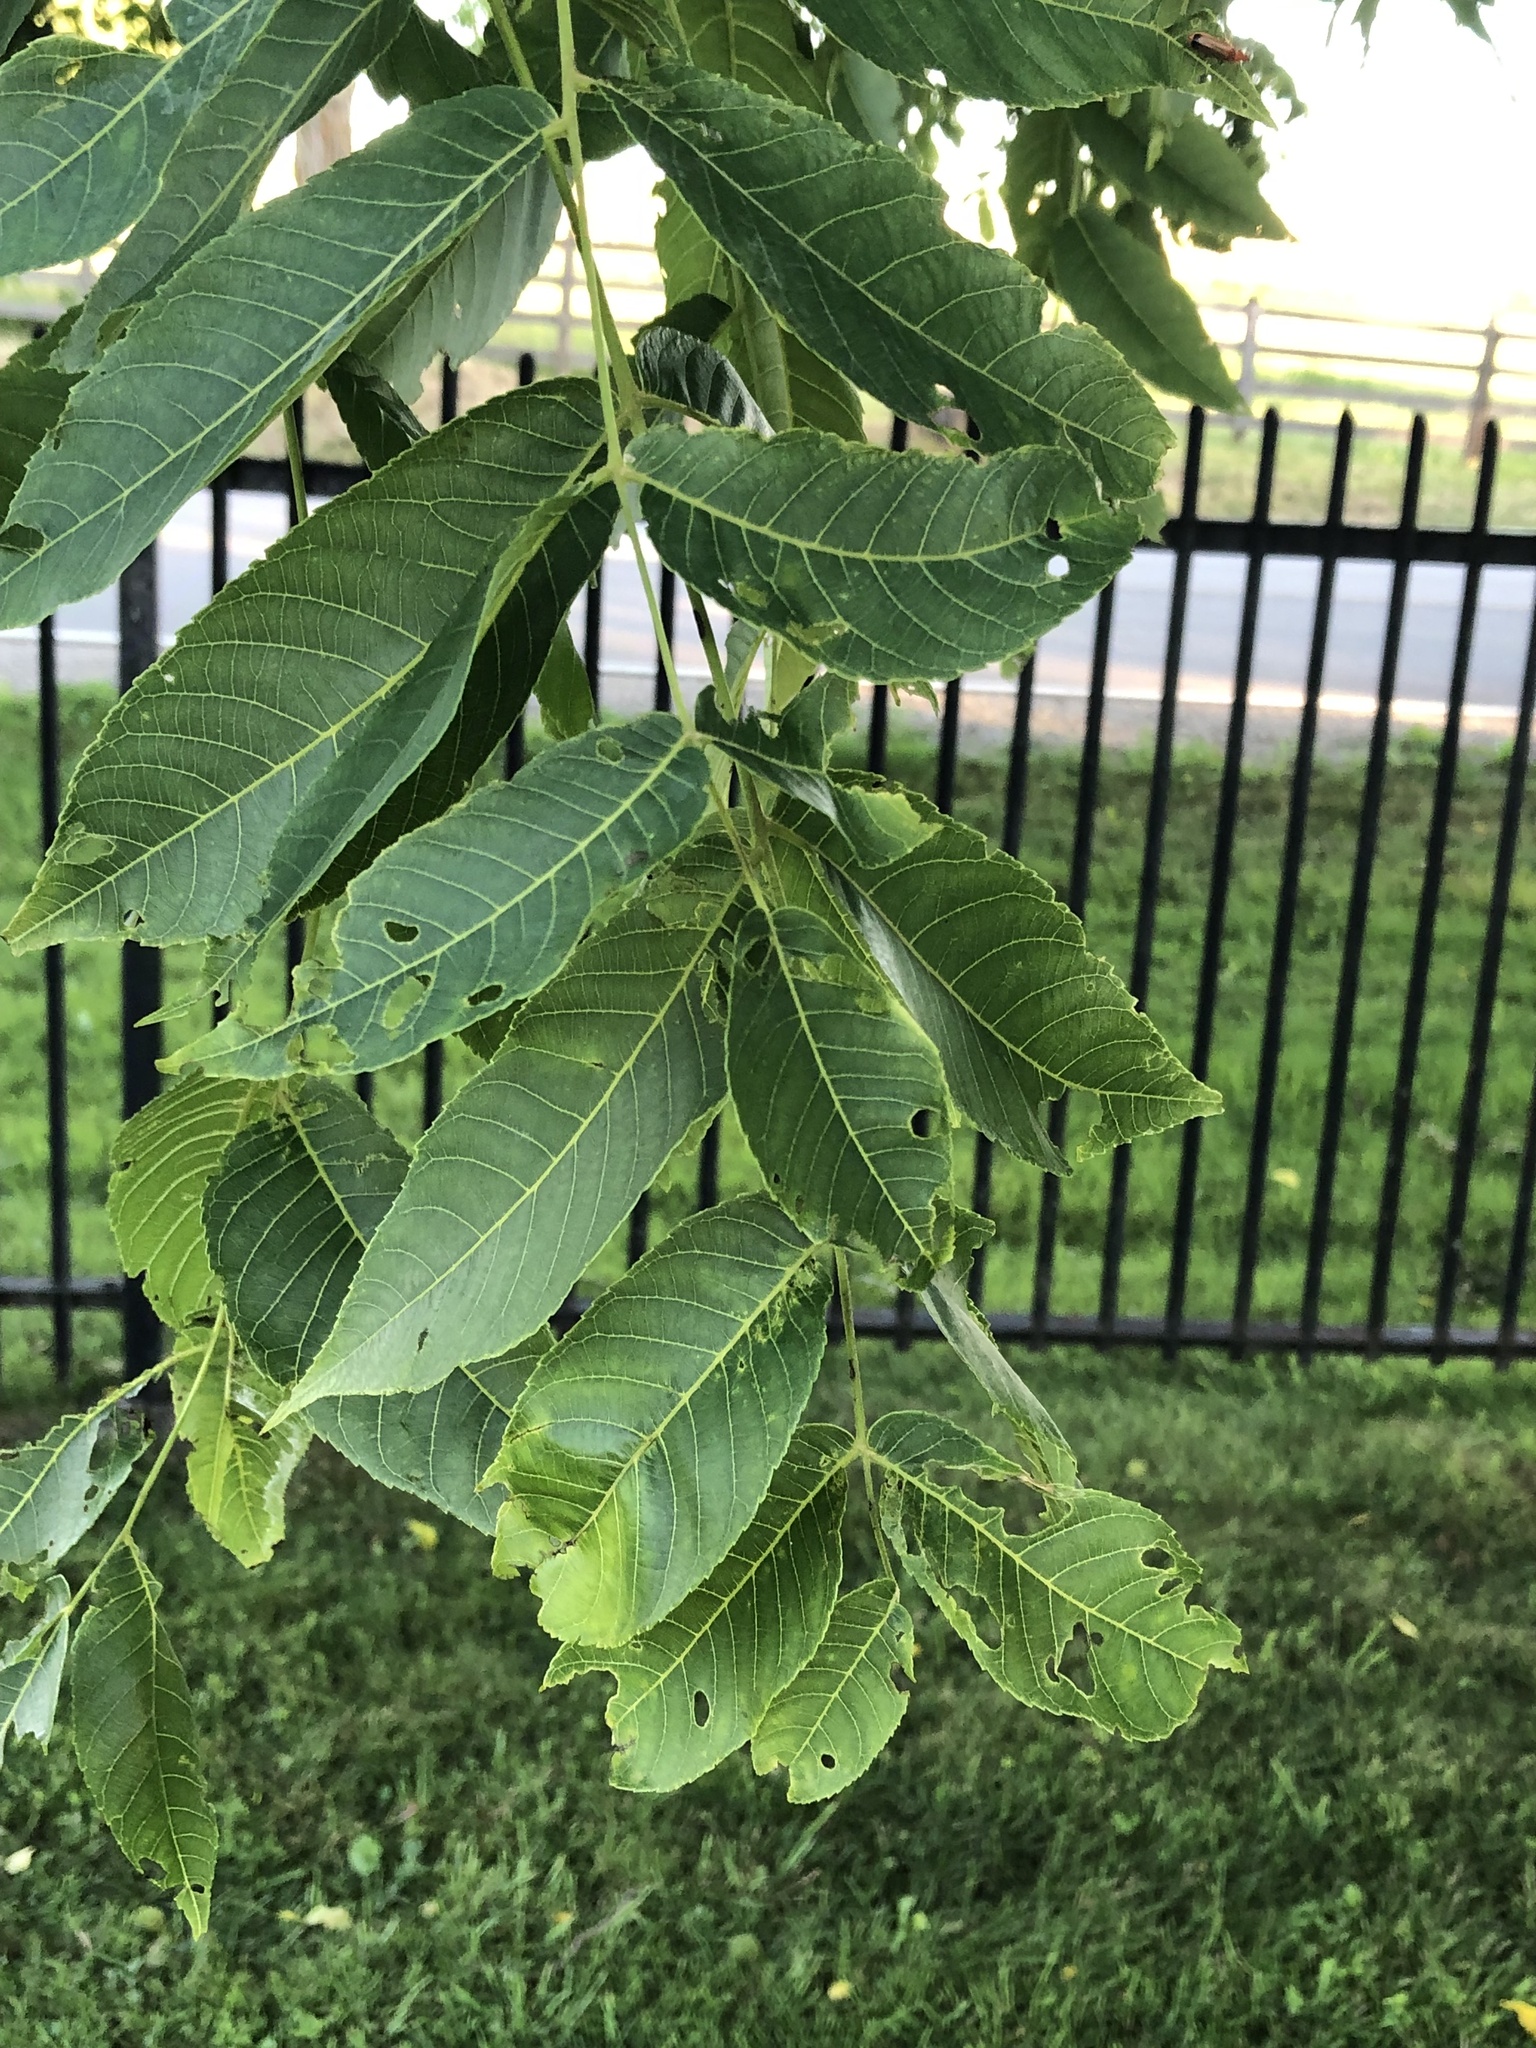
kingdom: Plantae
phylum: Tracheophyta
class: Magnoliopsida
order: Fagales
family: Juglandaceae
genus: Juglans
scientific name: Juglans nigra
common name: Black walnut
